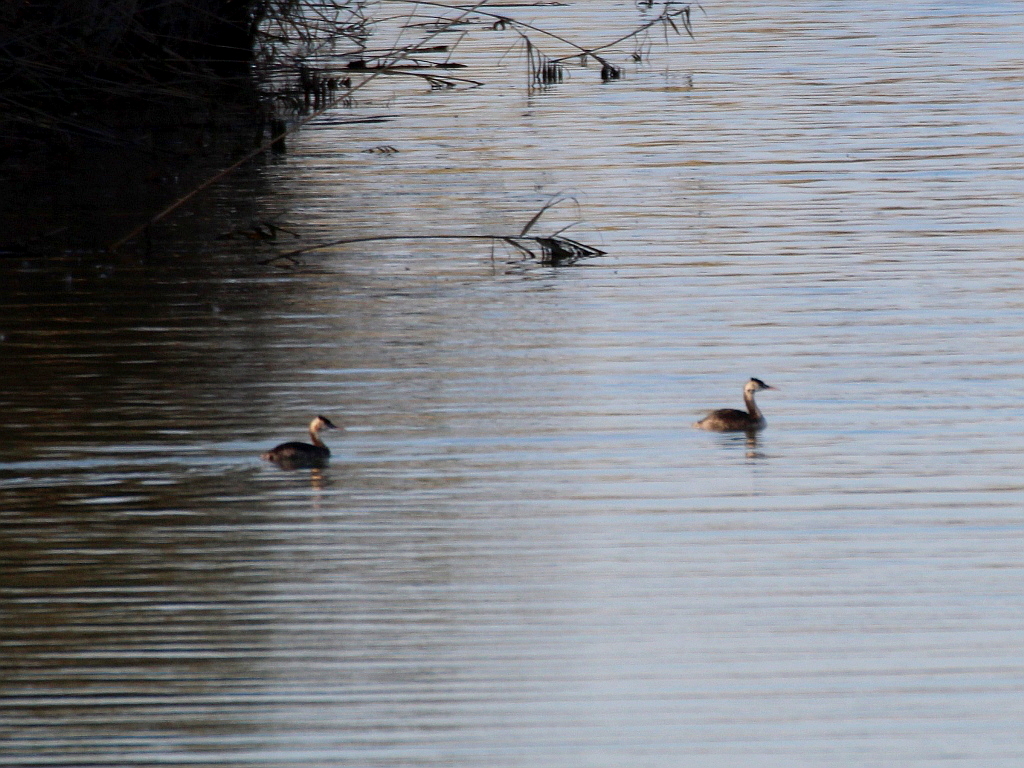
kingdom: Animalia
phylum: Chordata
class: Aves
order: Podicipediformes
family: Podicipedidae
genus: Podiceps
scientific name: Podiceps cristatus
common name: Great crested grebe
